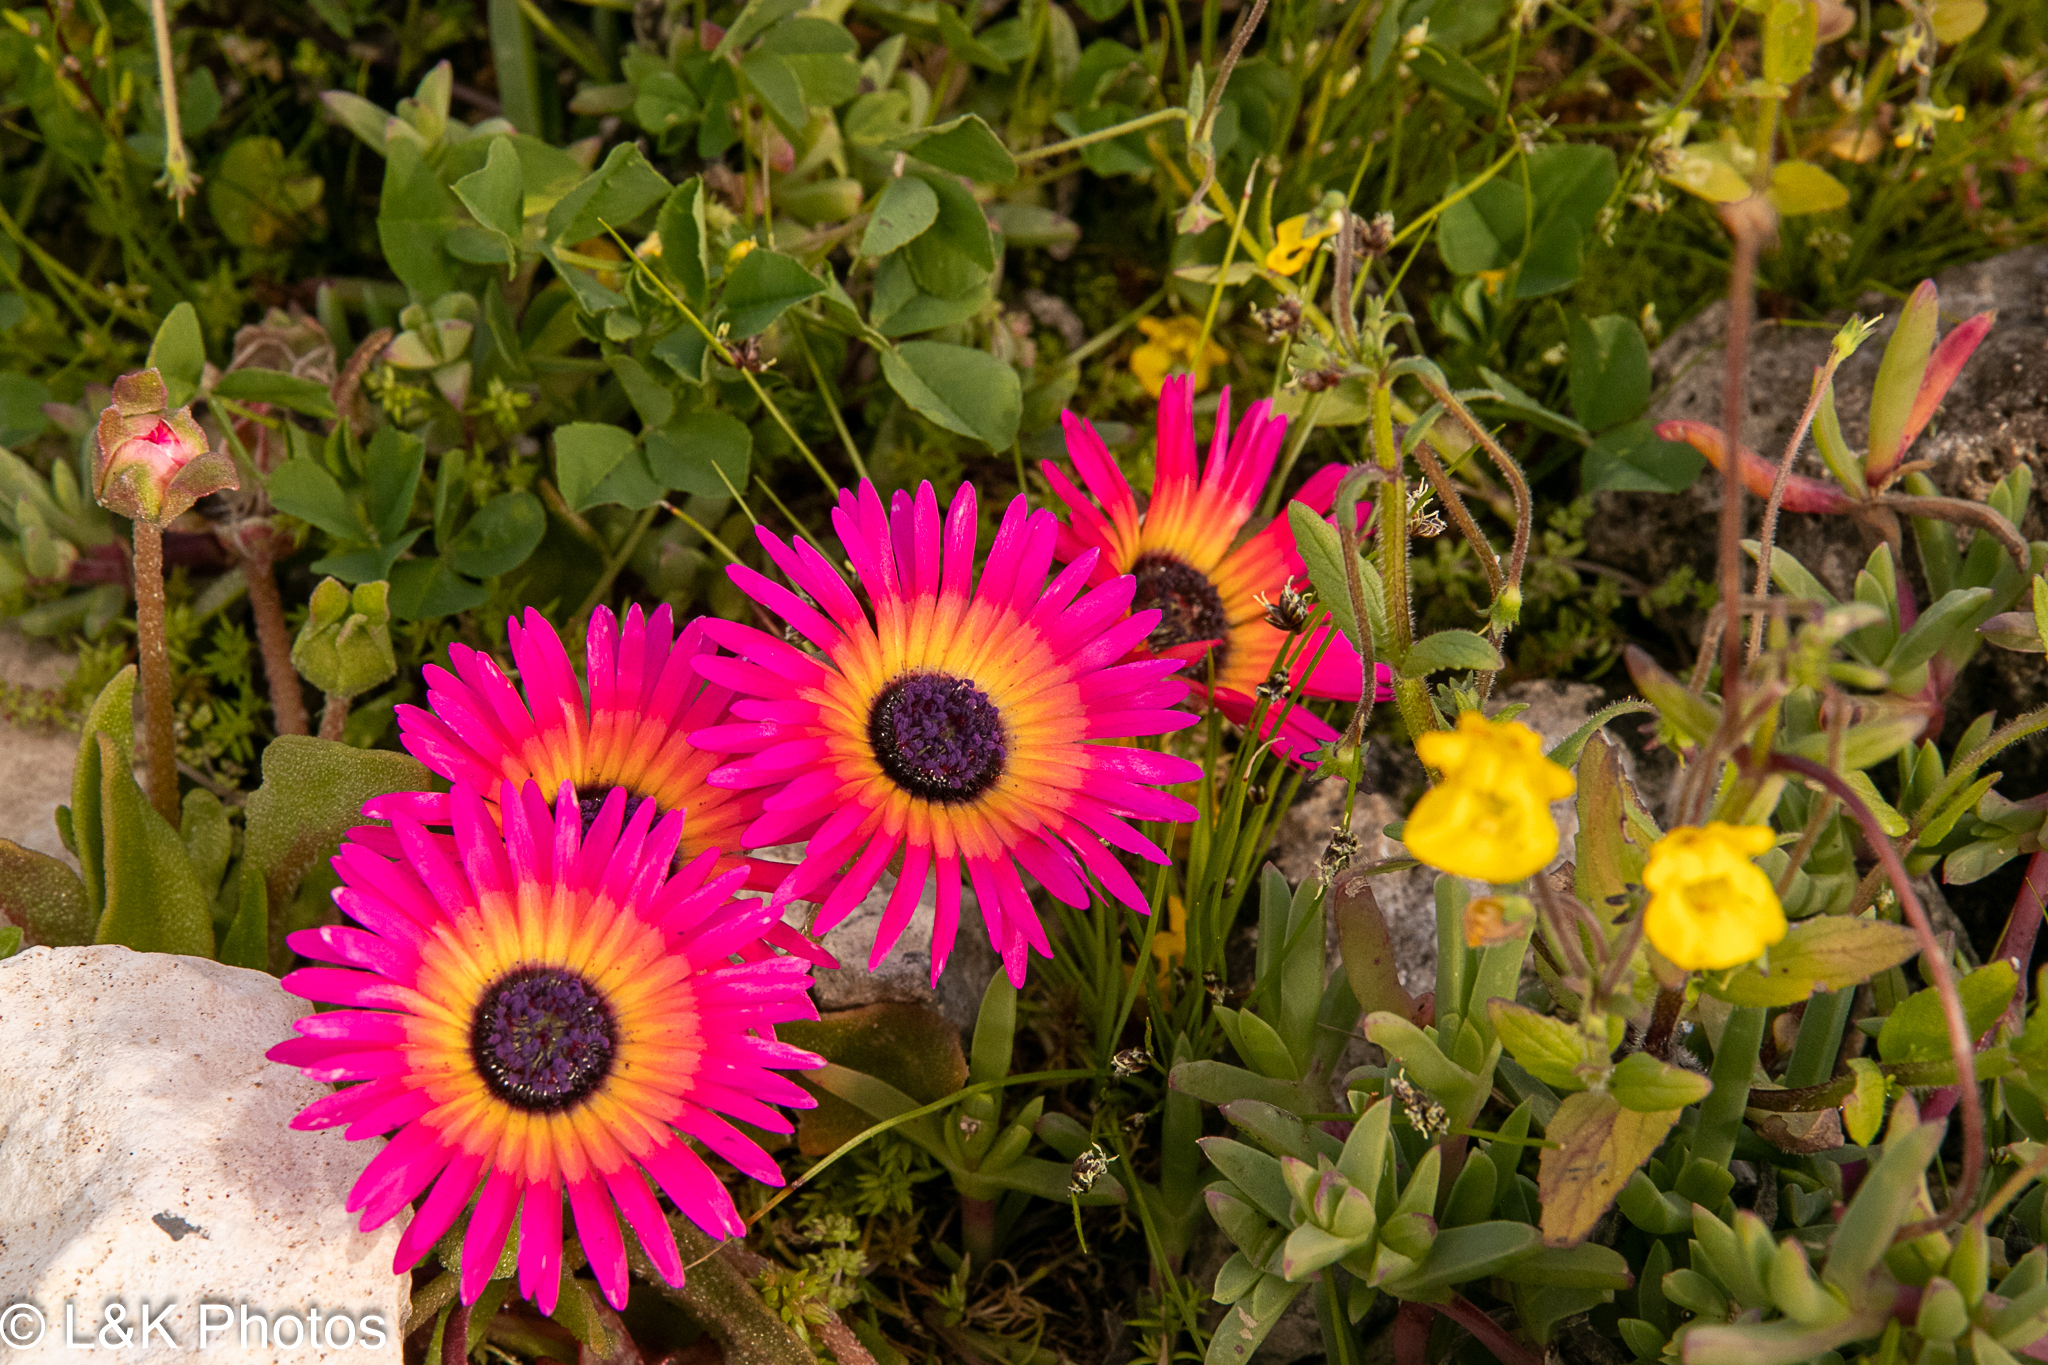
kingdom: Plantae
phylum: Tracheophyta
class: Magnoliopsida
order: Caryophyllales
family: Aizoaceae
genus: Cleretum
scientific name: Cleretum bellidiforme
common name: Livingstone daisy
